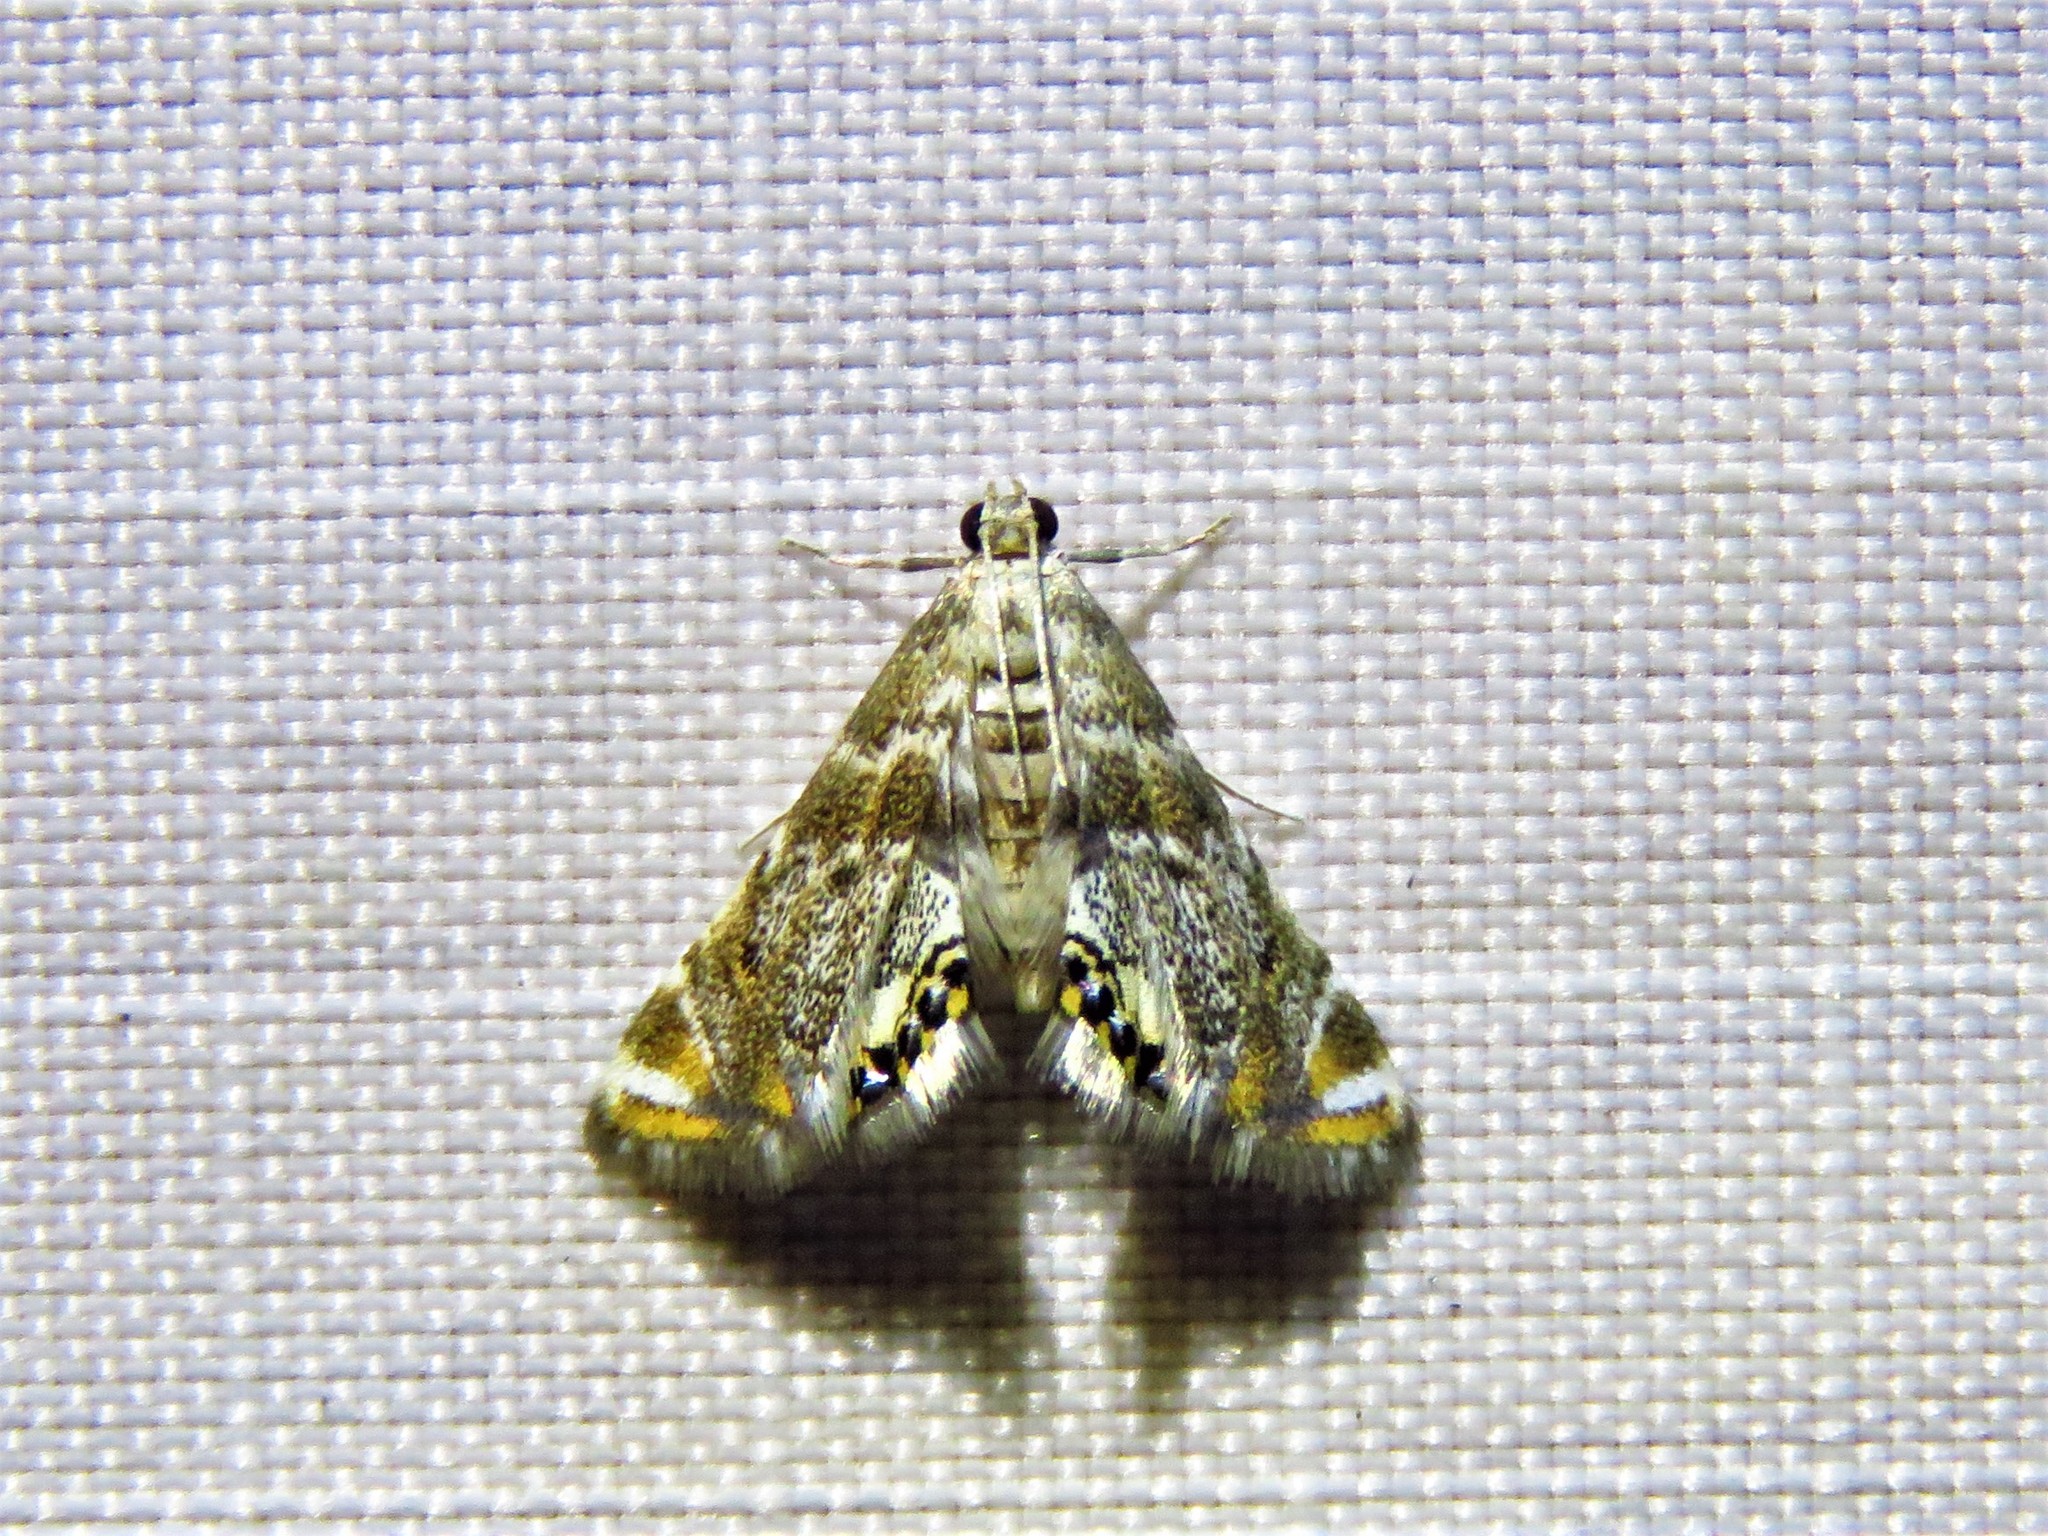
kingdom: Animalia
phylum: Arthropoda
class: Insecta
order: Lepidoptera
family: Crambidae
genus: Petrophila
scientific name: Petrophila fulicalis
